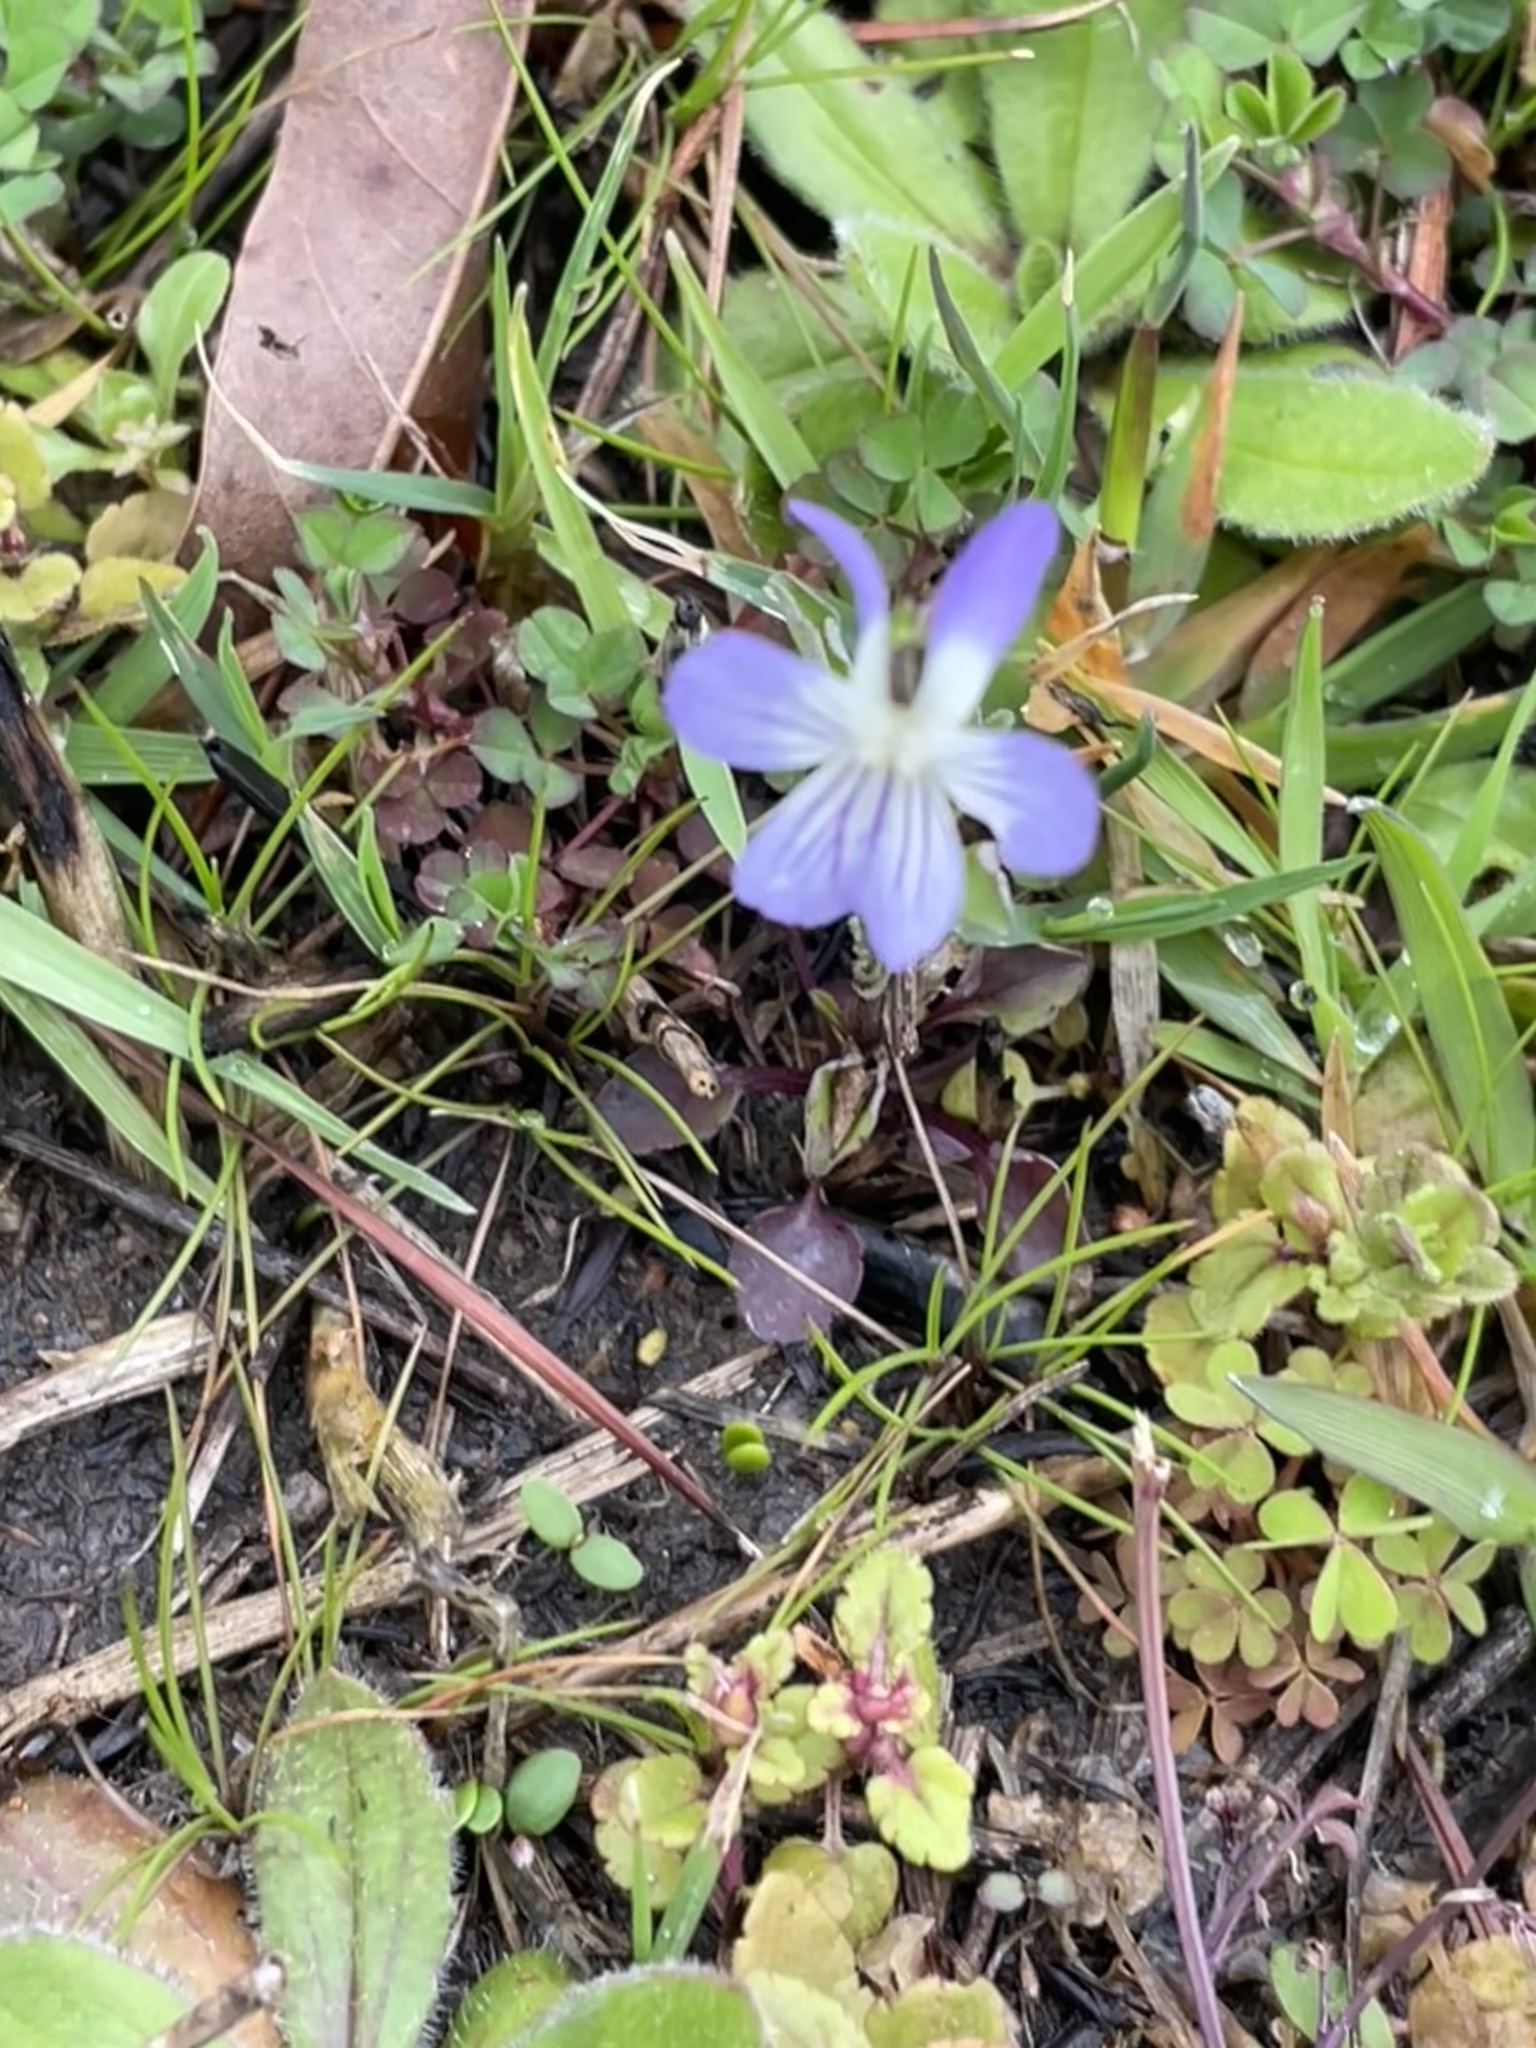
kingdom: Plantae
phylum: Tracheophyta
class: Magnoliopsida
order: Malpighiales
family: Violaceae
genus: Viola
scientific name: Viola rafinesquei
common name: American field pansy
